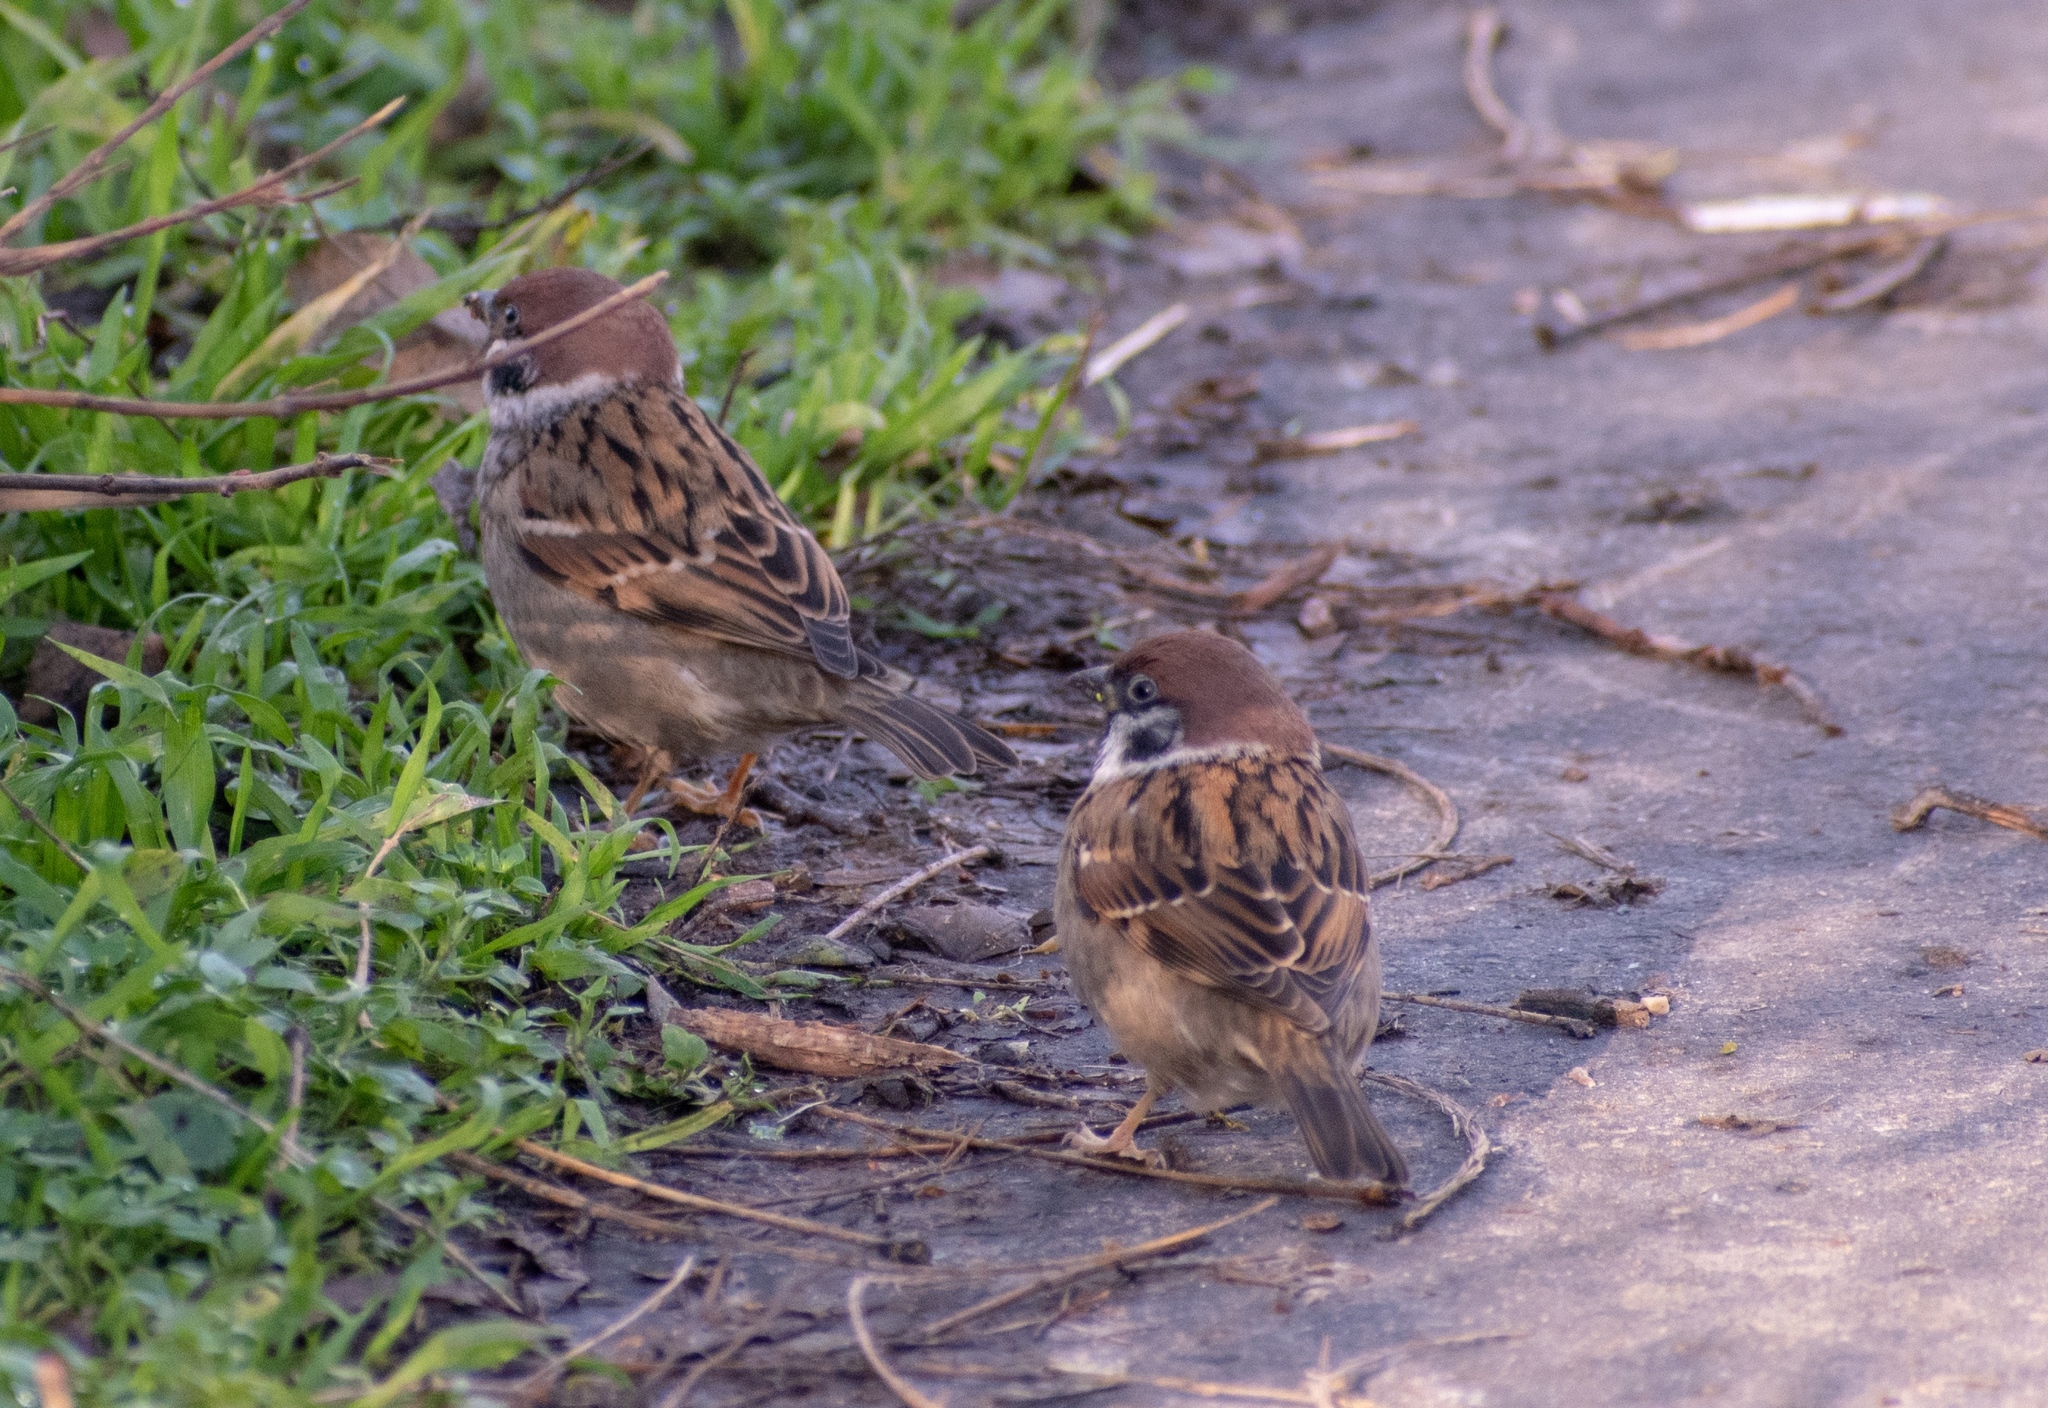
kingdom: Animalia
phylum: Chordata
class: Aves
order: Passeriformes
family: Passeridae
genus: Passer
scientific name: Passer montanus
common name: Eurasian tree sparrow
